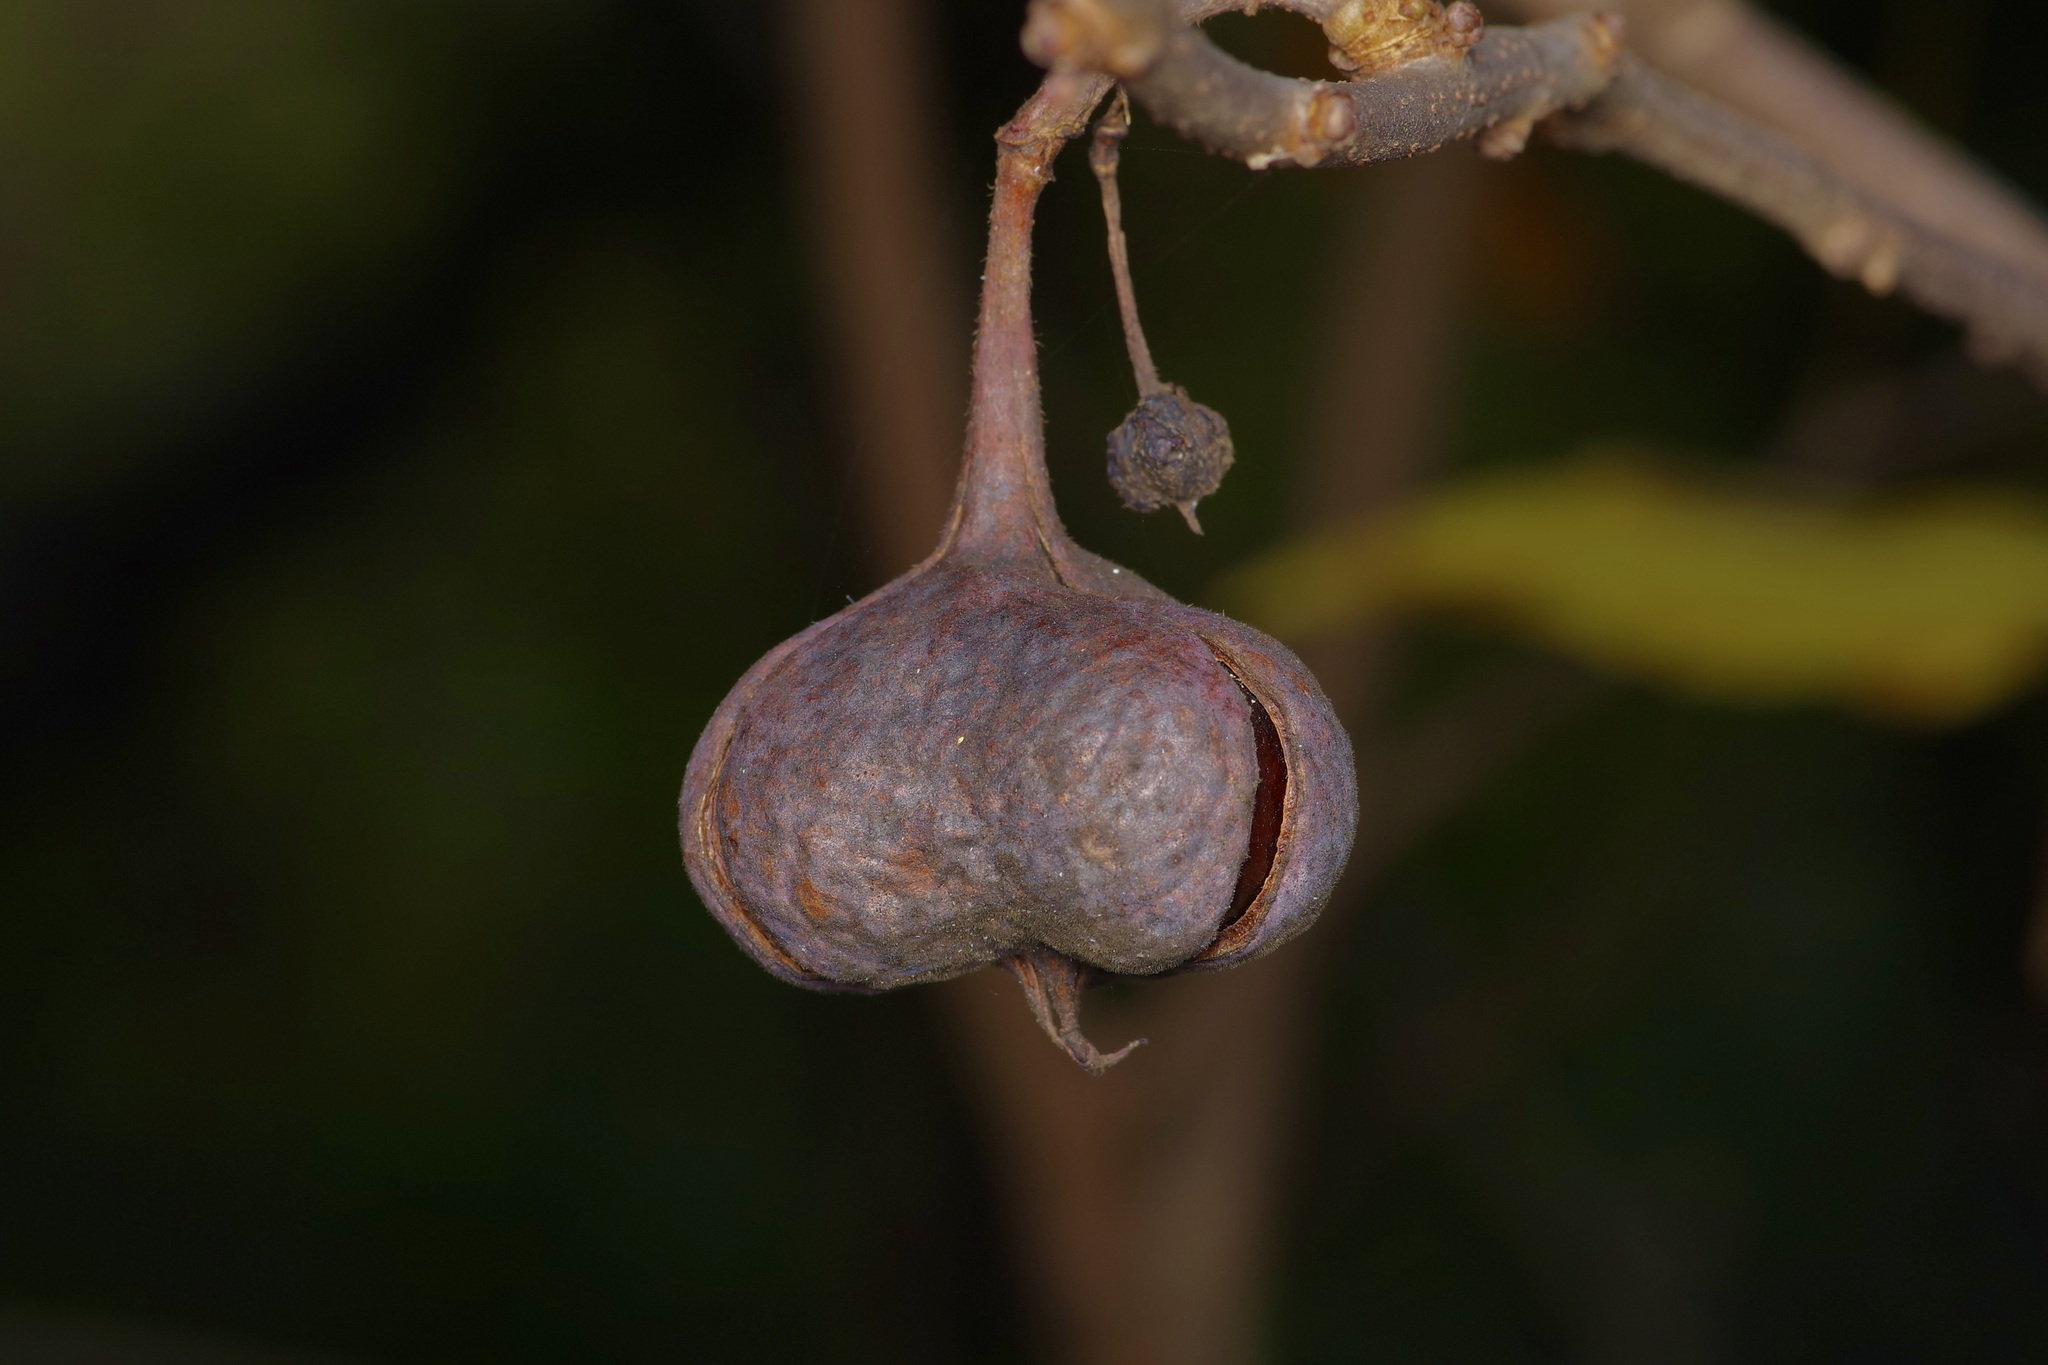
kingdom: Plantae
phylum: Tracheophyta
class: Magnoliopsida
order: Sapindales
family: Sapindaceae
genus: Ungnadia
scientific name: Ungnadia speciosa
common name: Texas-buckeye
